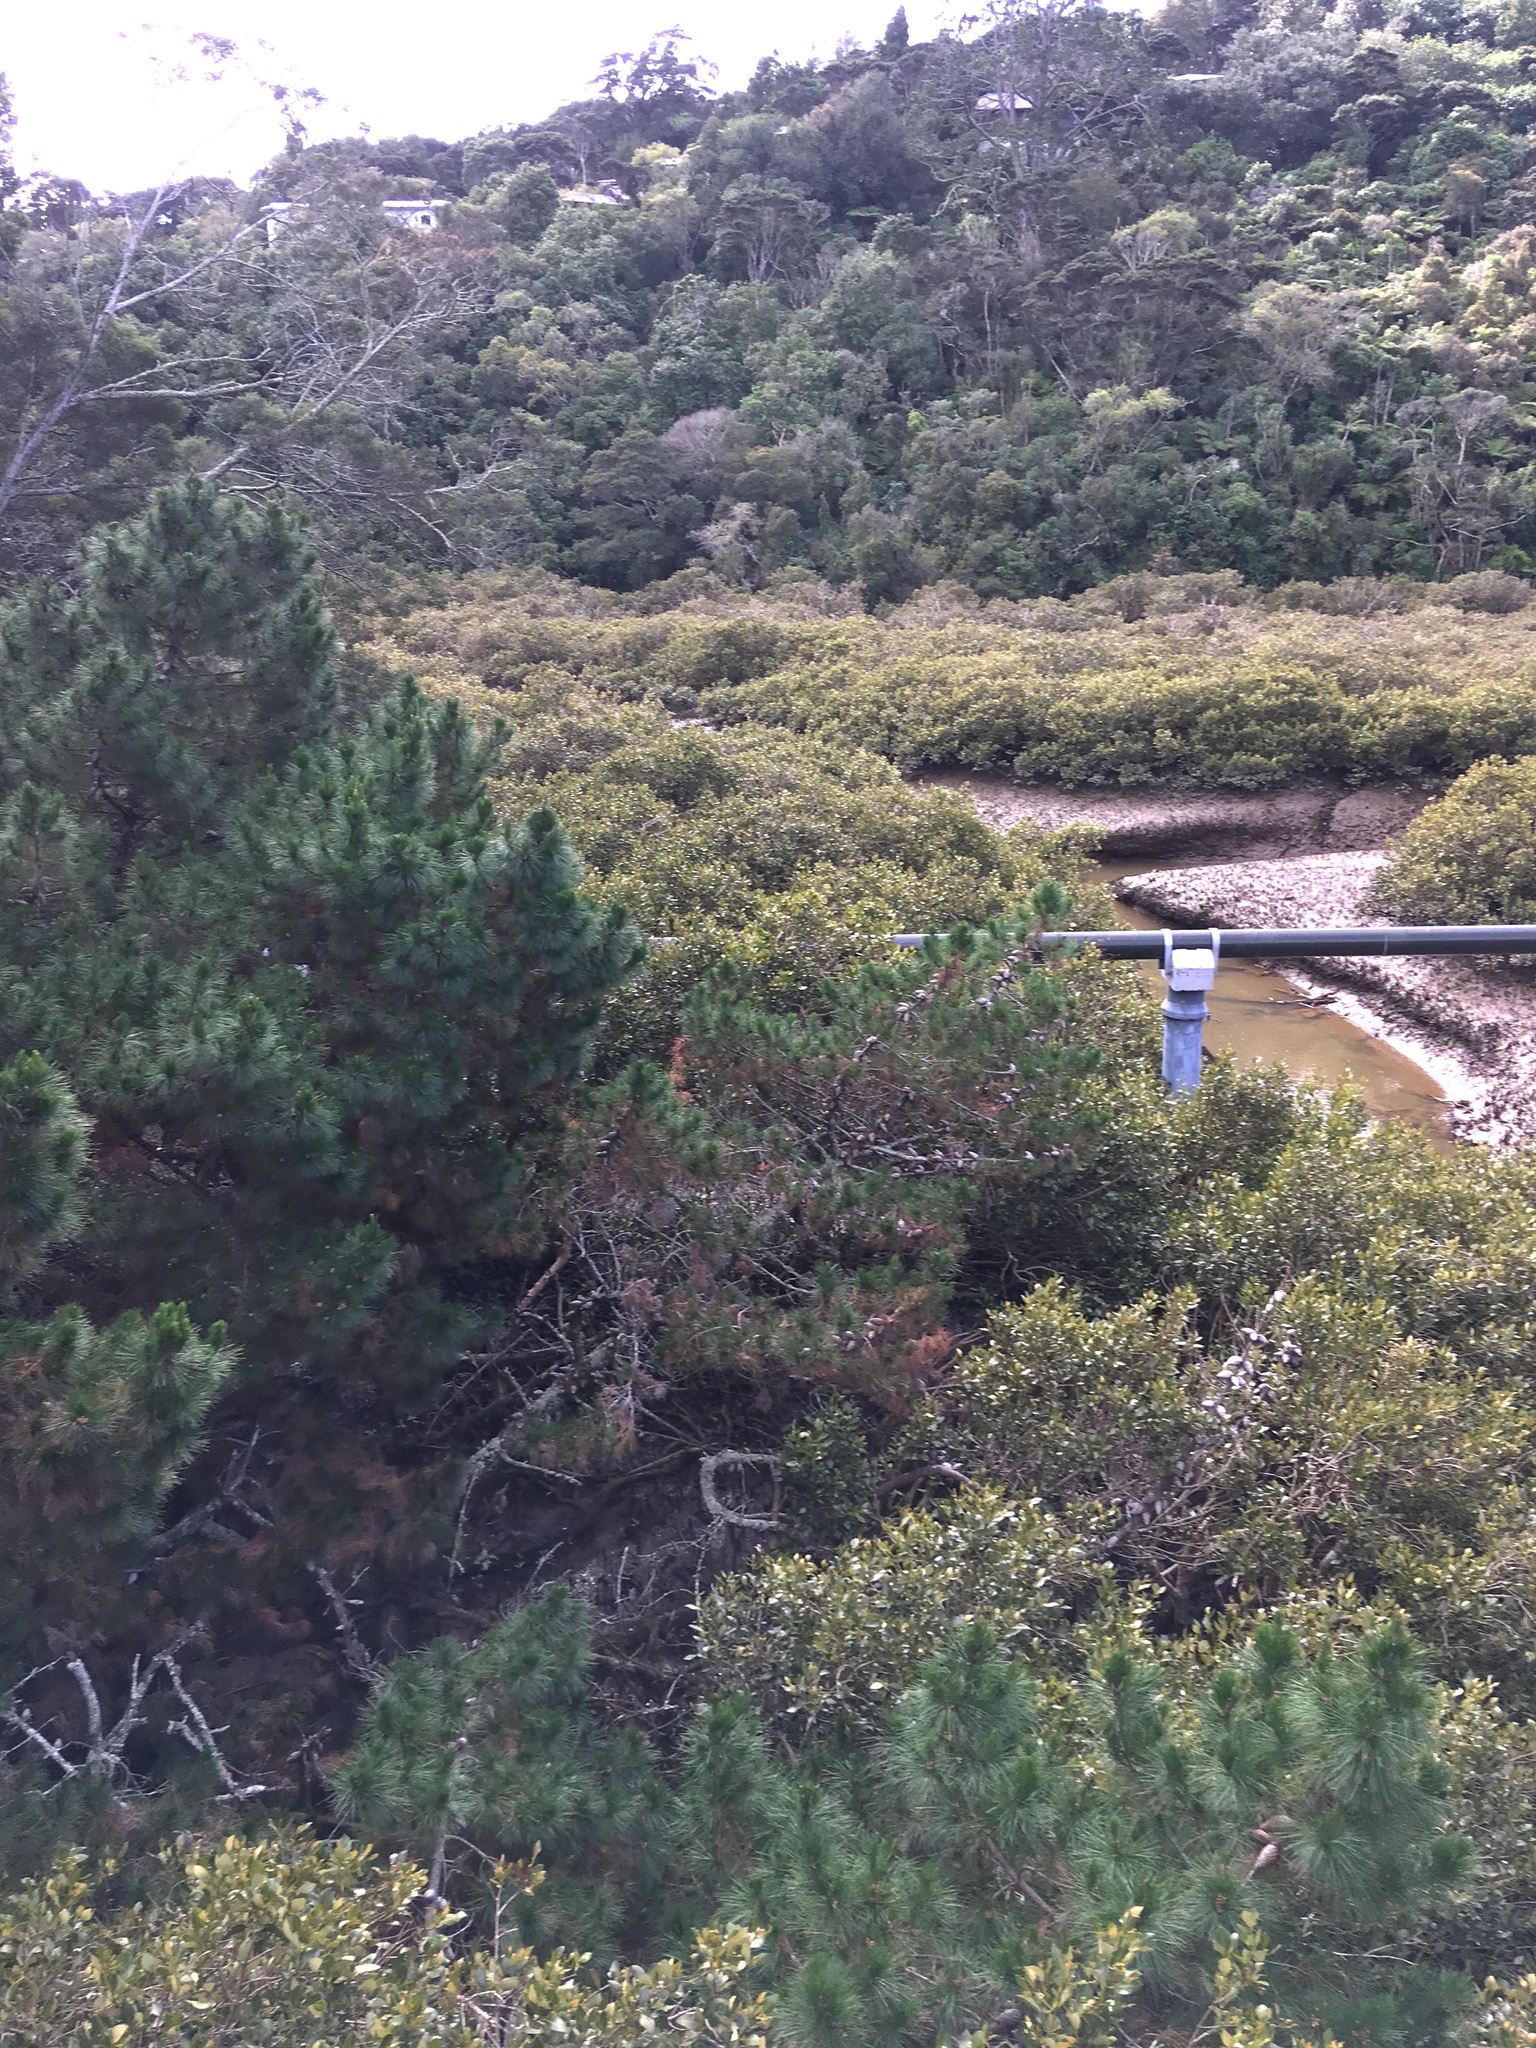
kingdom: Plantae
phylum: Tracheophyta
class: Pinopsida
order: Pinales
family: Pinaceae
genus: Pinus
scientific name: Pinus radiata
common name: Monterey pine
